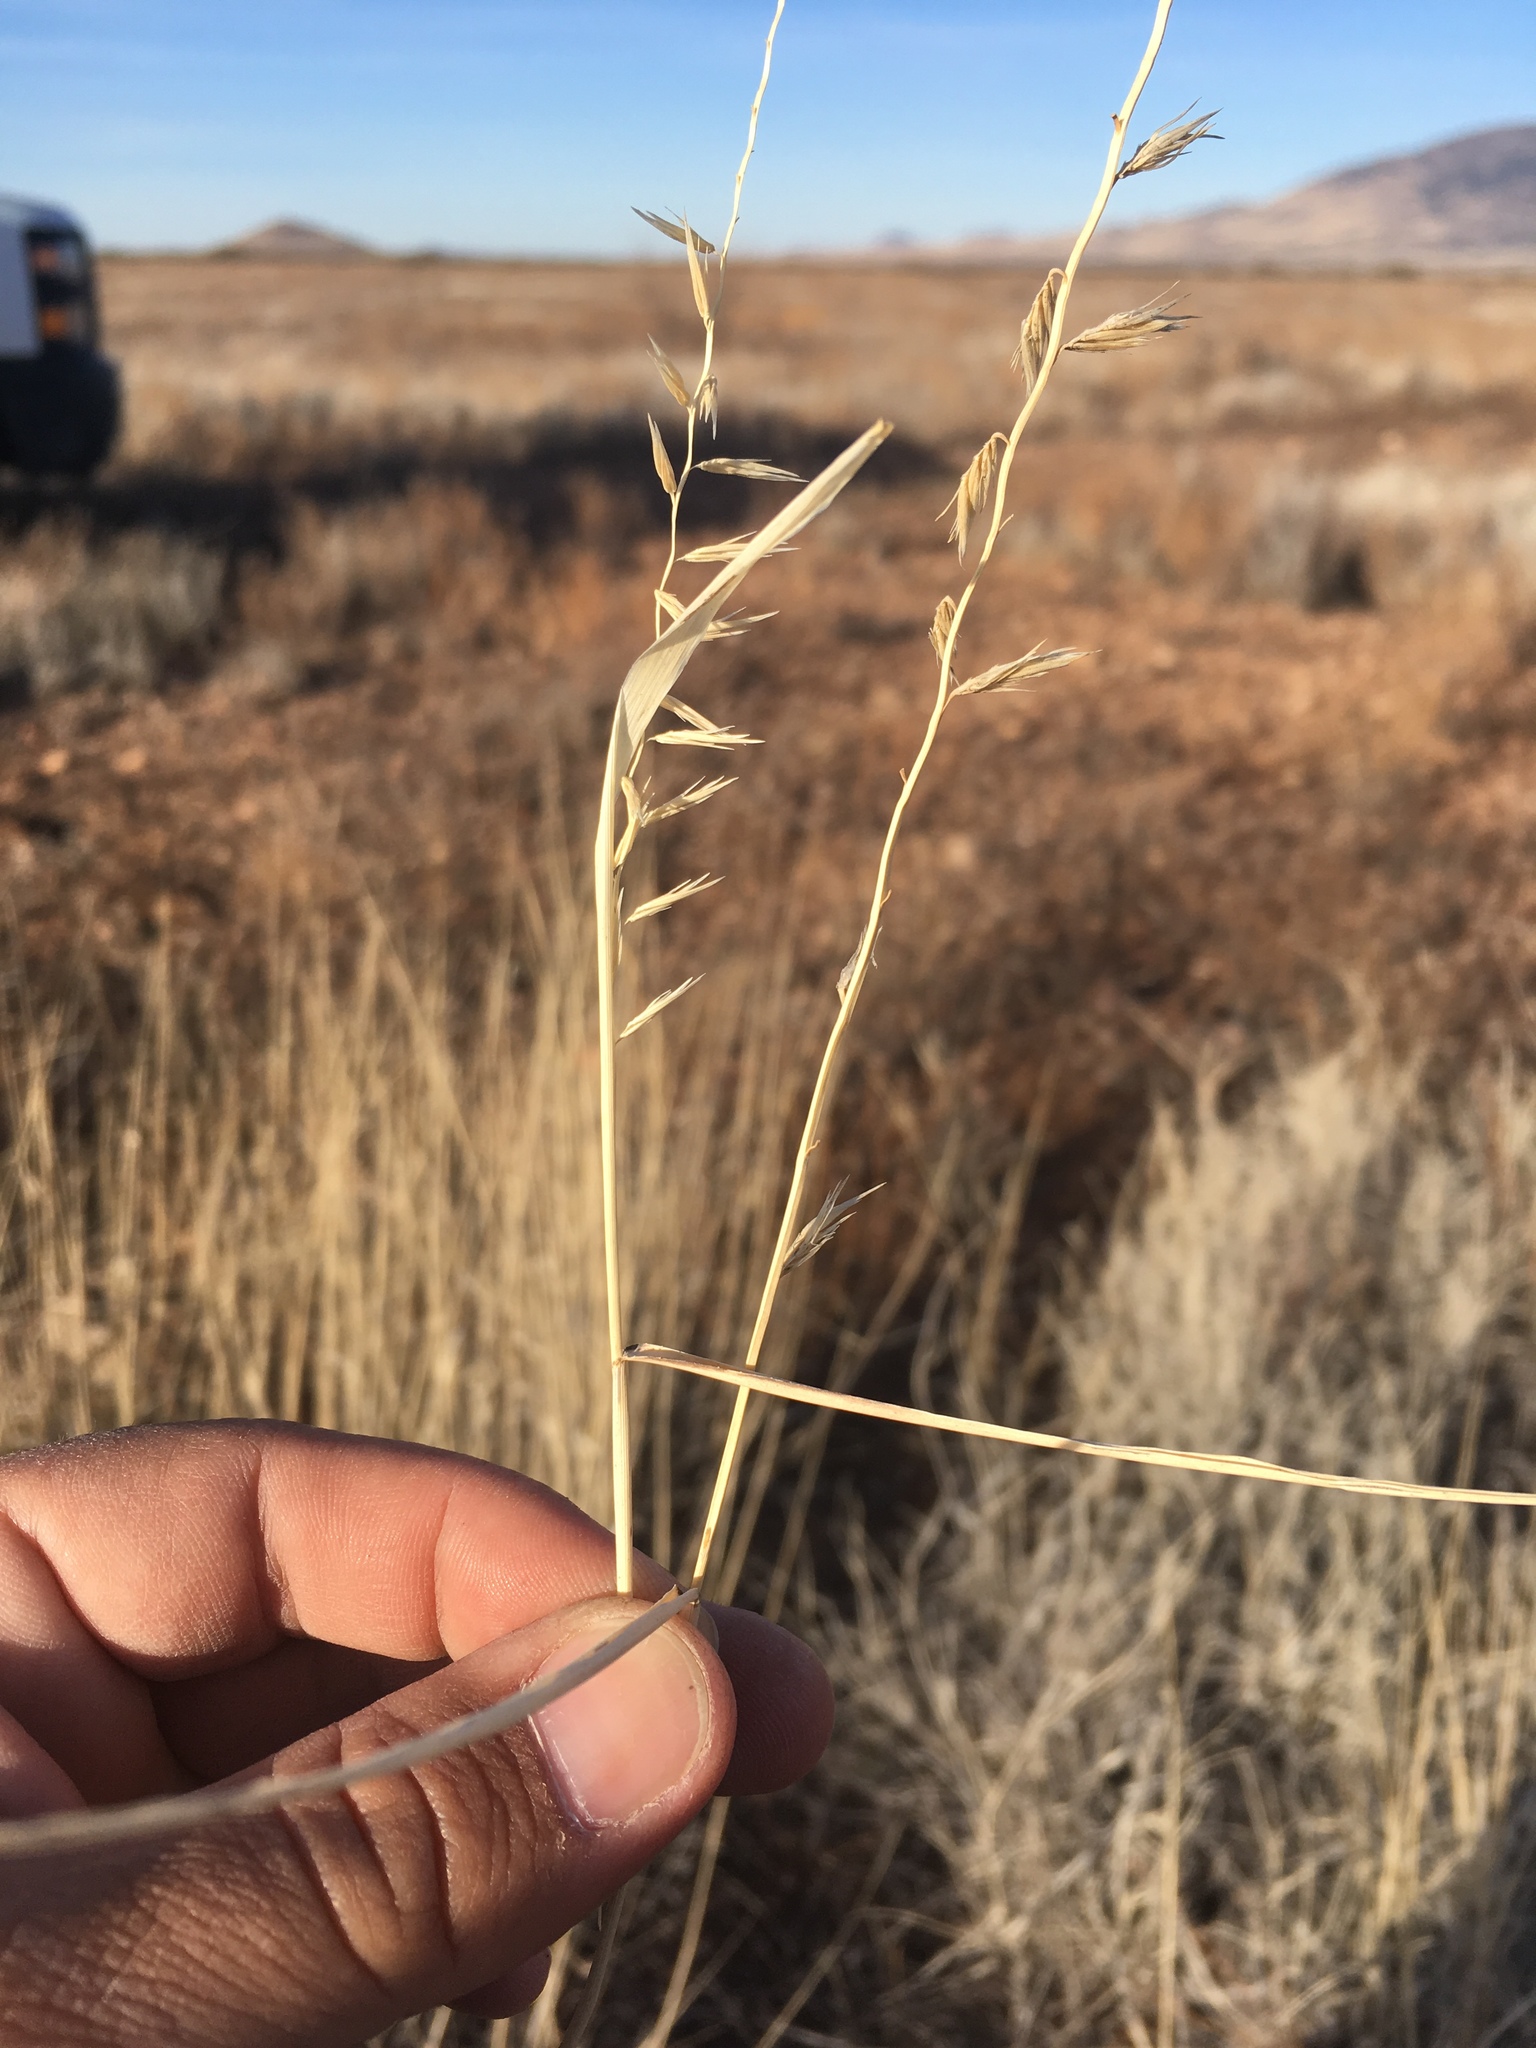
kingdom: Plantae
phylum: Tracheophyta
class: Liliopsida
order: Poales
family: Poaceae
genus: Bouteloua
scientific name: Bouteloua curtipendula
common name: Side-oats grama
